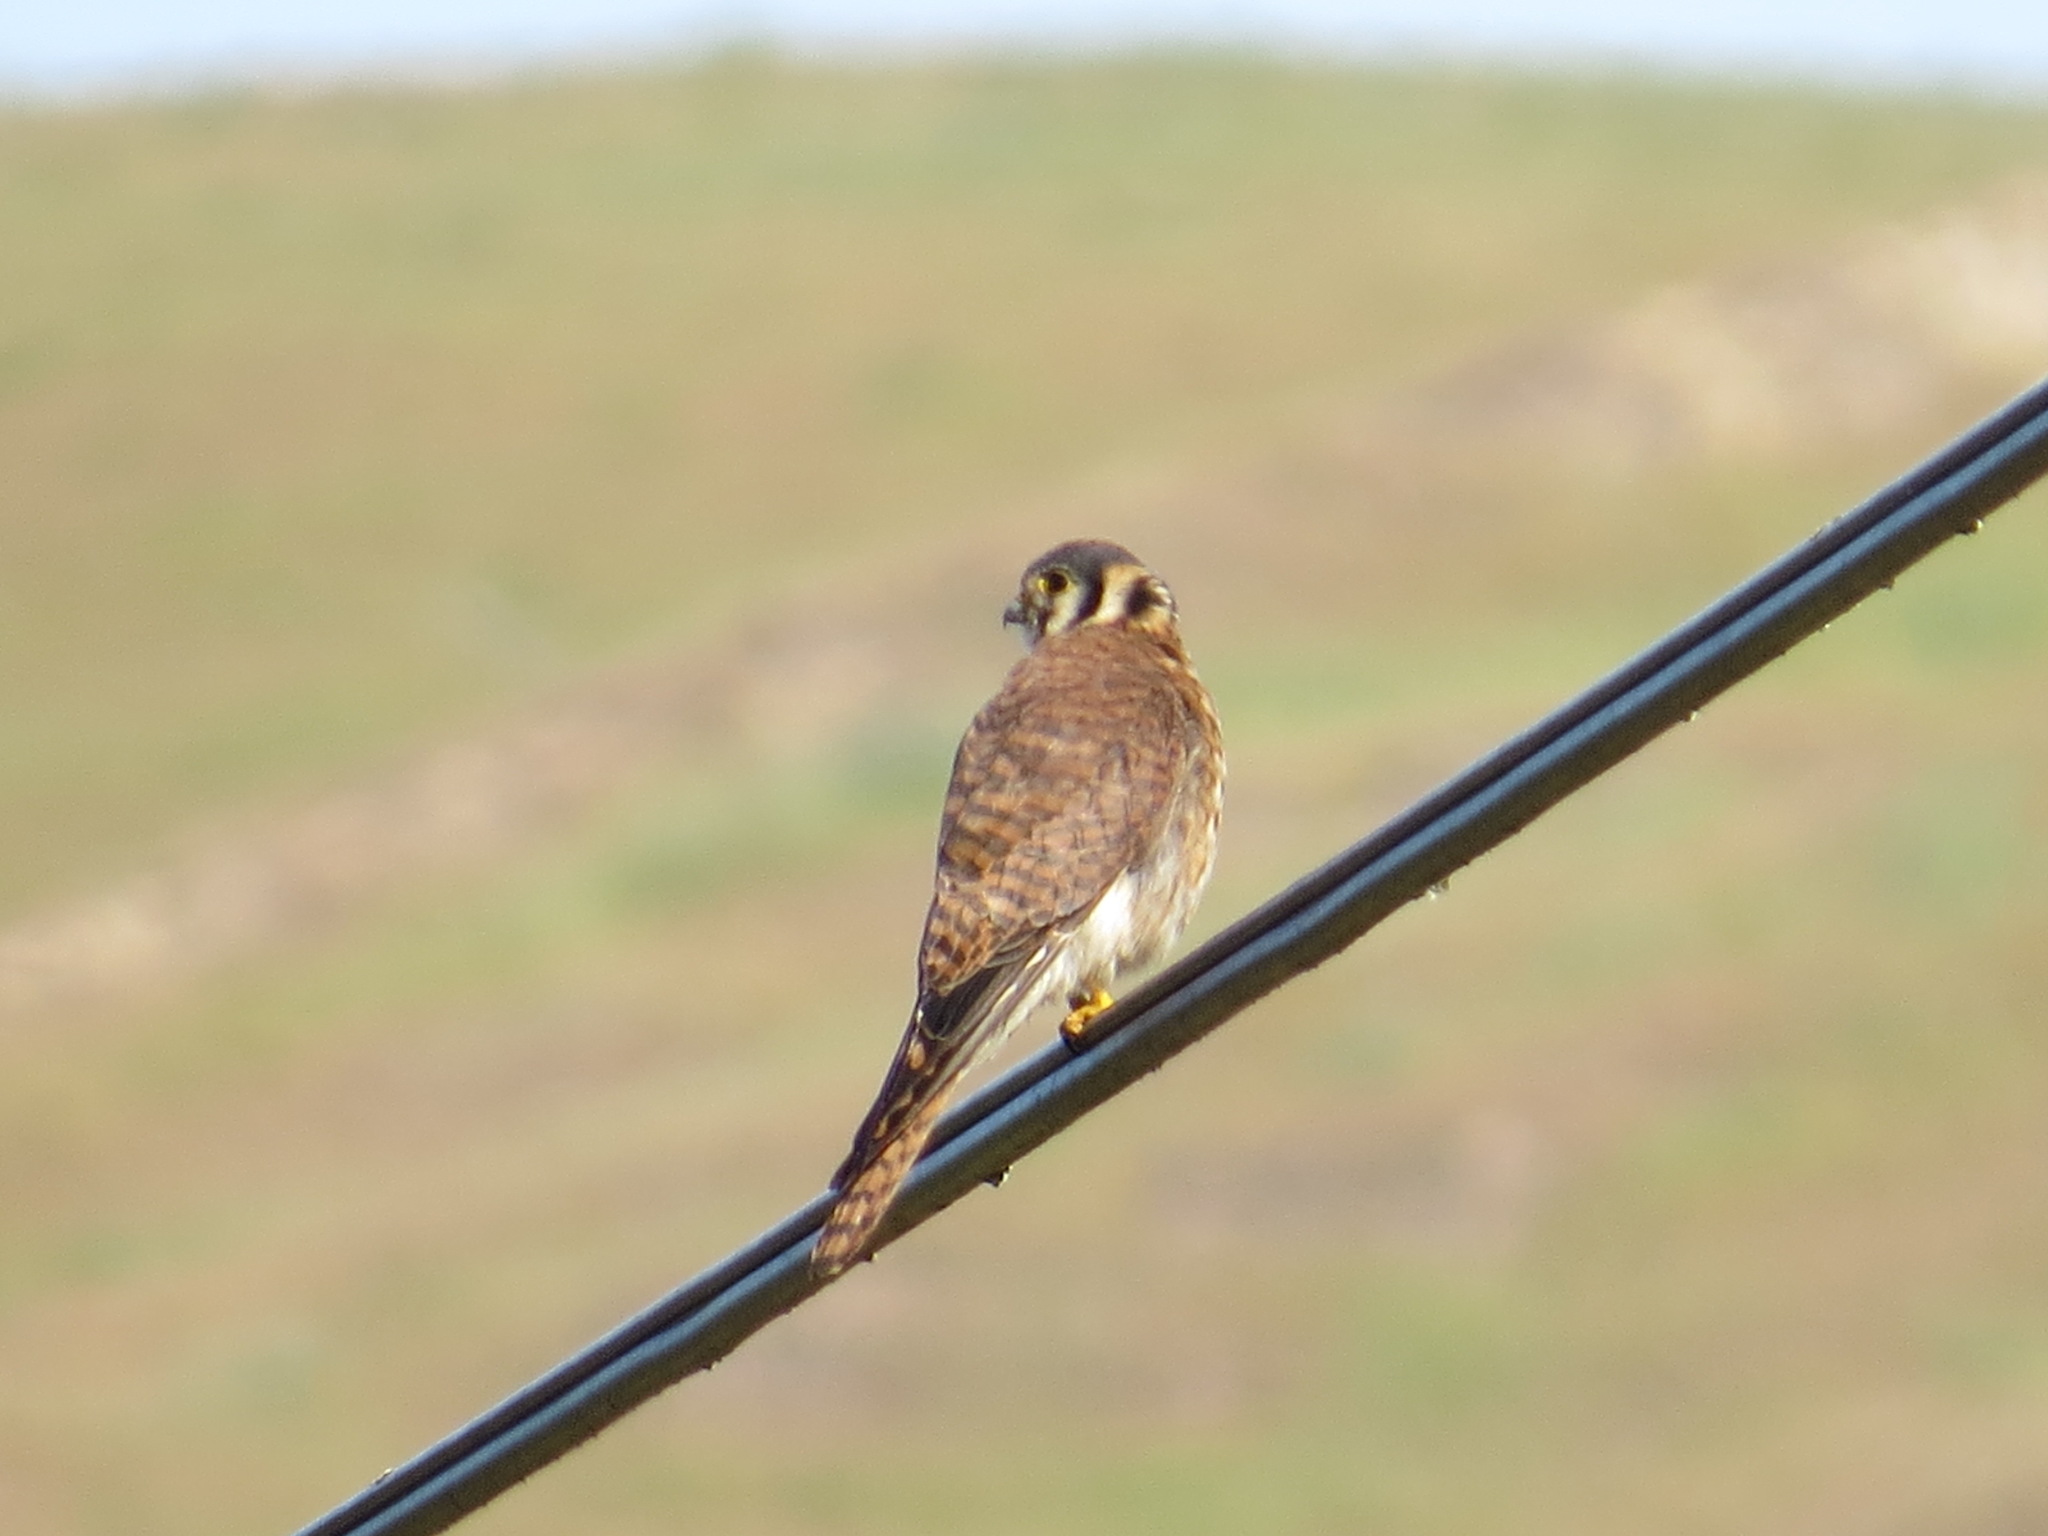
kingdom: Animalia
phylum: Chordata
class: Aves
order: Falconiformes
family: Falconidae
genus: Falco
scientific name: Falco sparverius
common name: American kestrel
